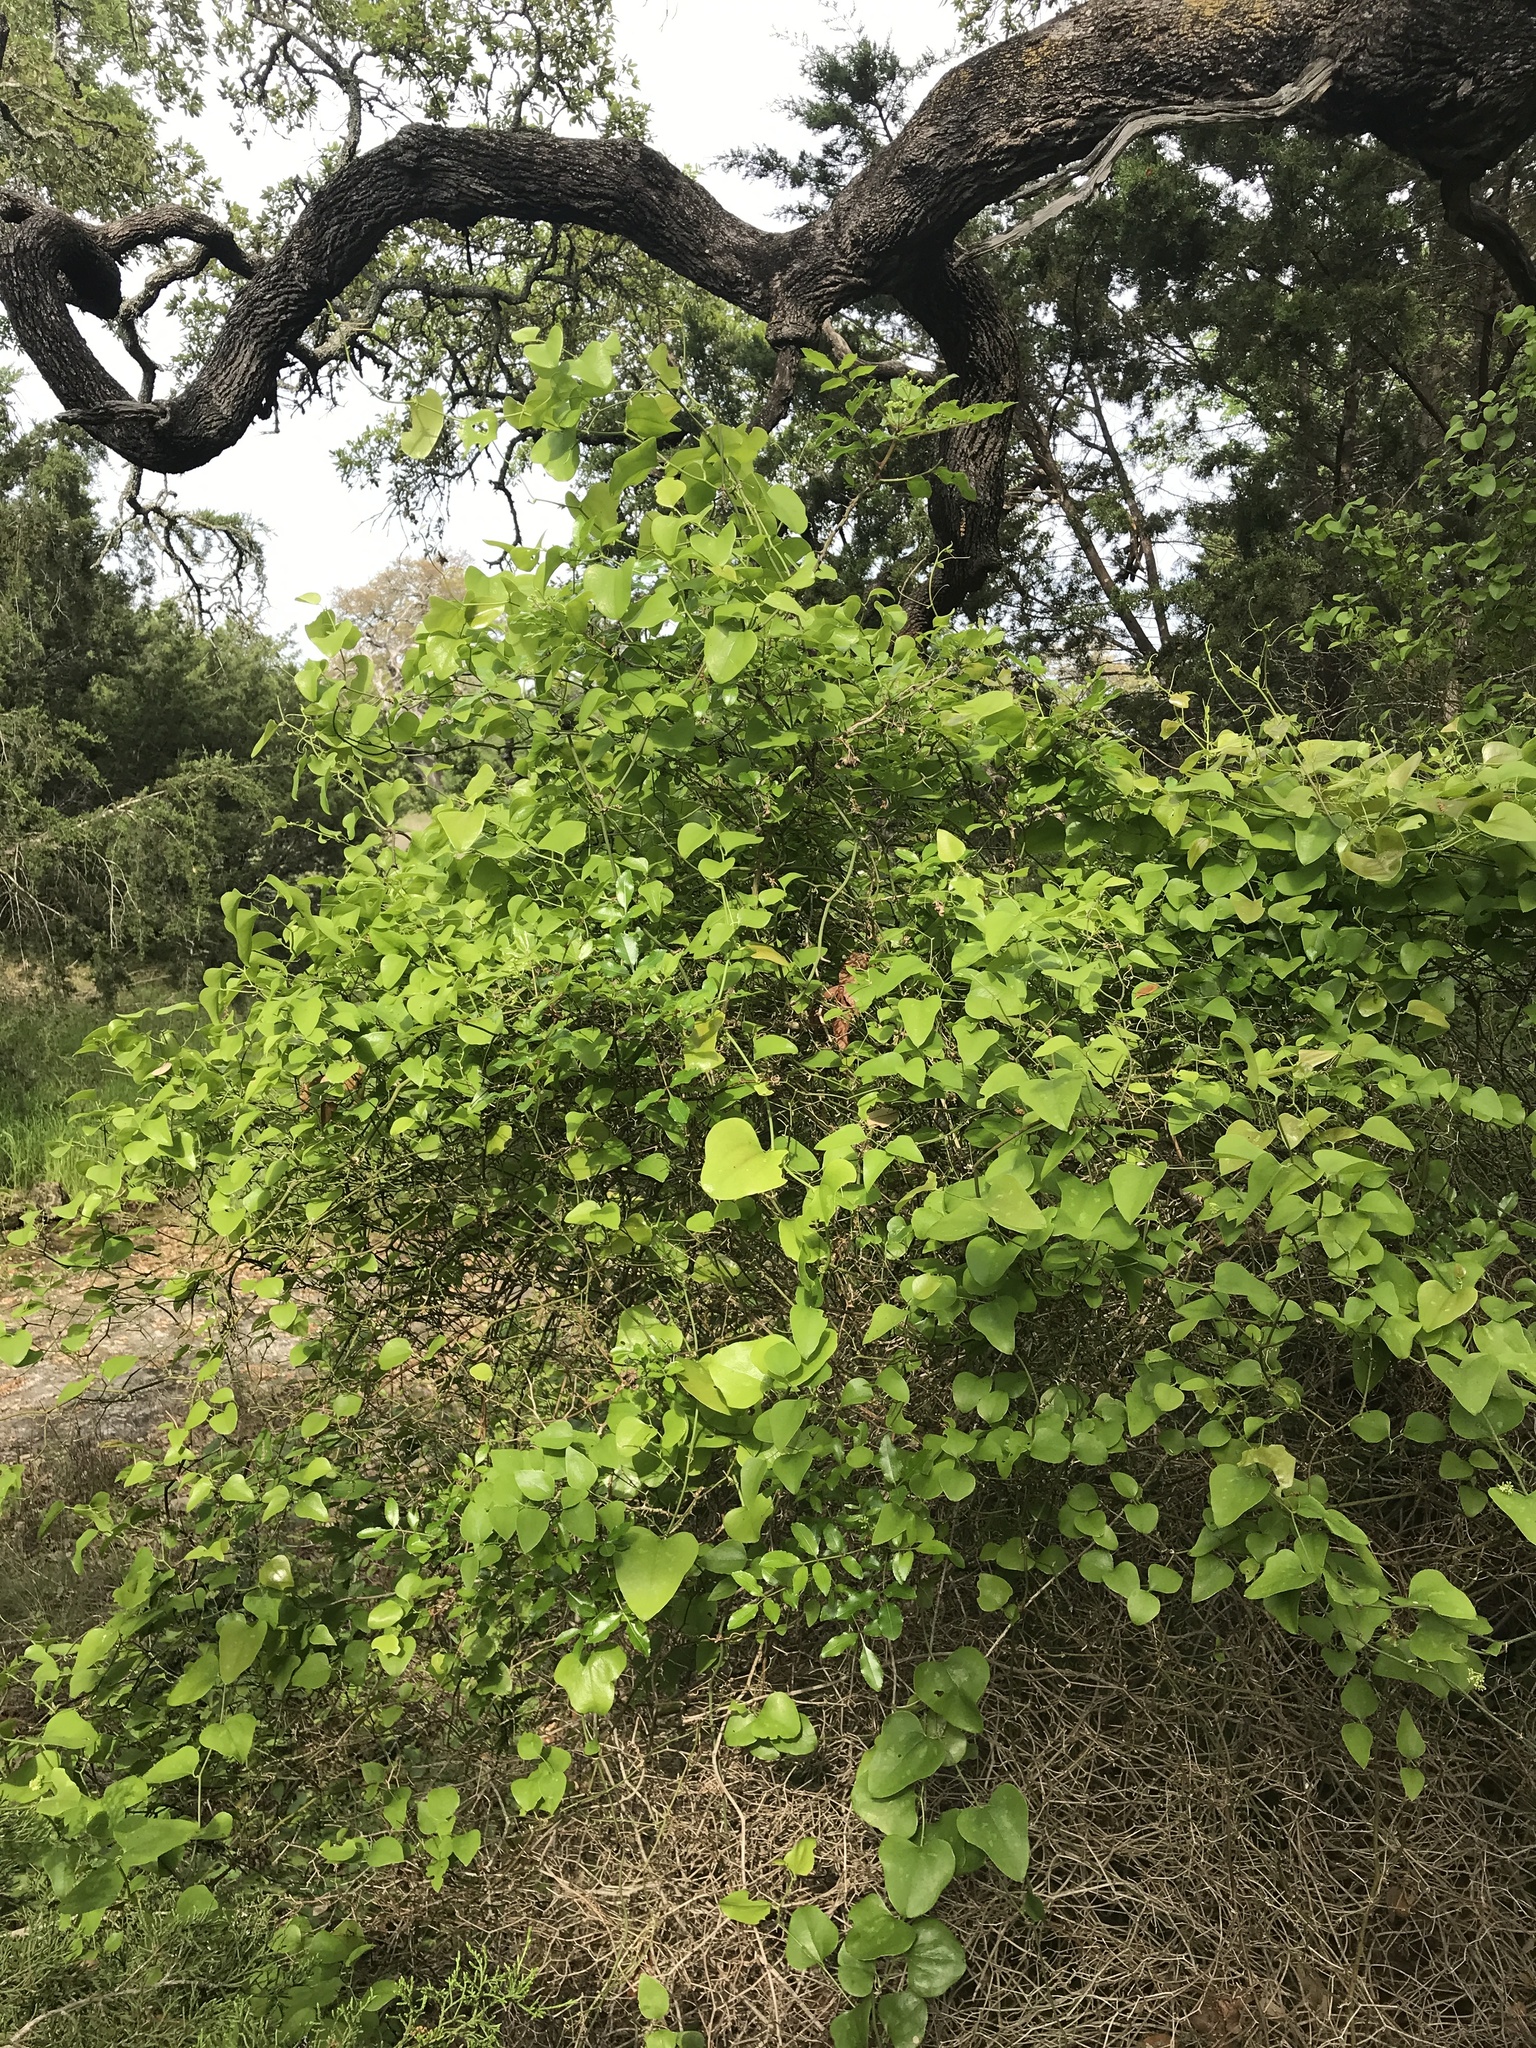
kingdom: Plantae
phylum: Tracheophyta
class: Magnoliopsida
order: Sapindales
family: Rutaceae
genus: Zanthoxylum
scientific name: Zanthoxylum clava-herculis
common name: Hercules'-club
